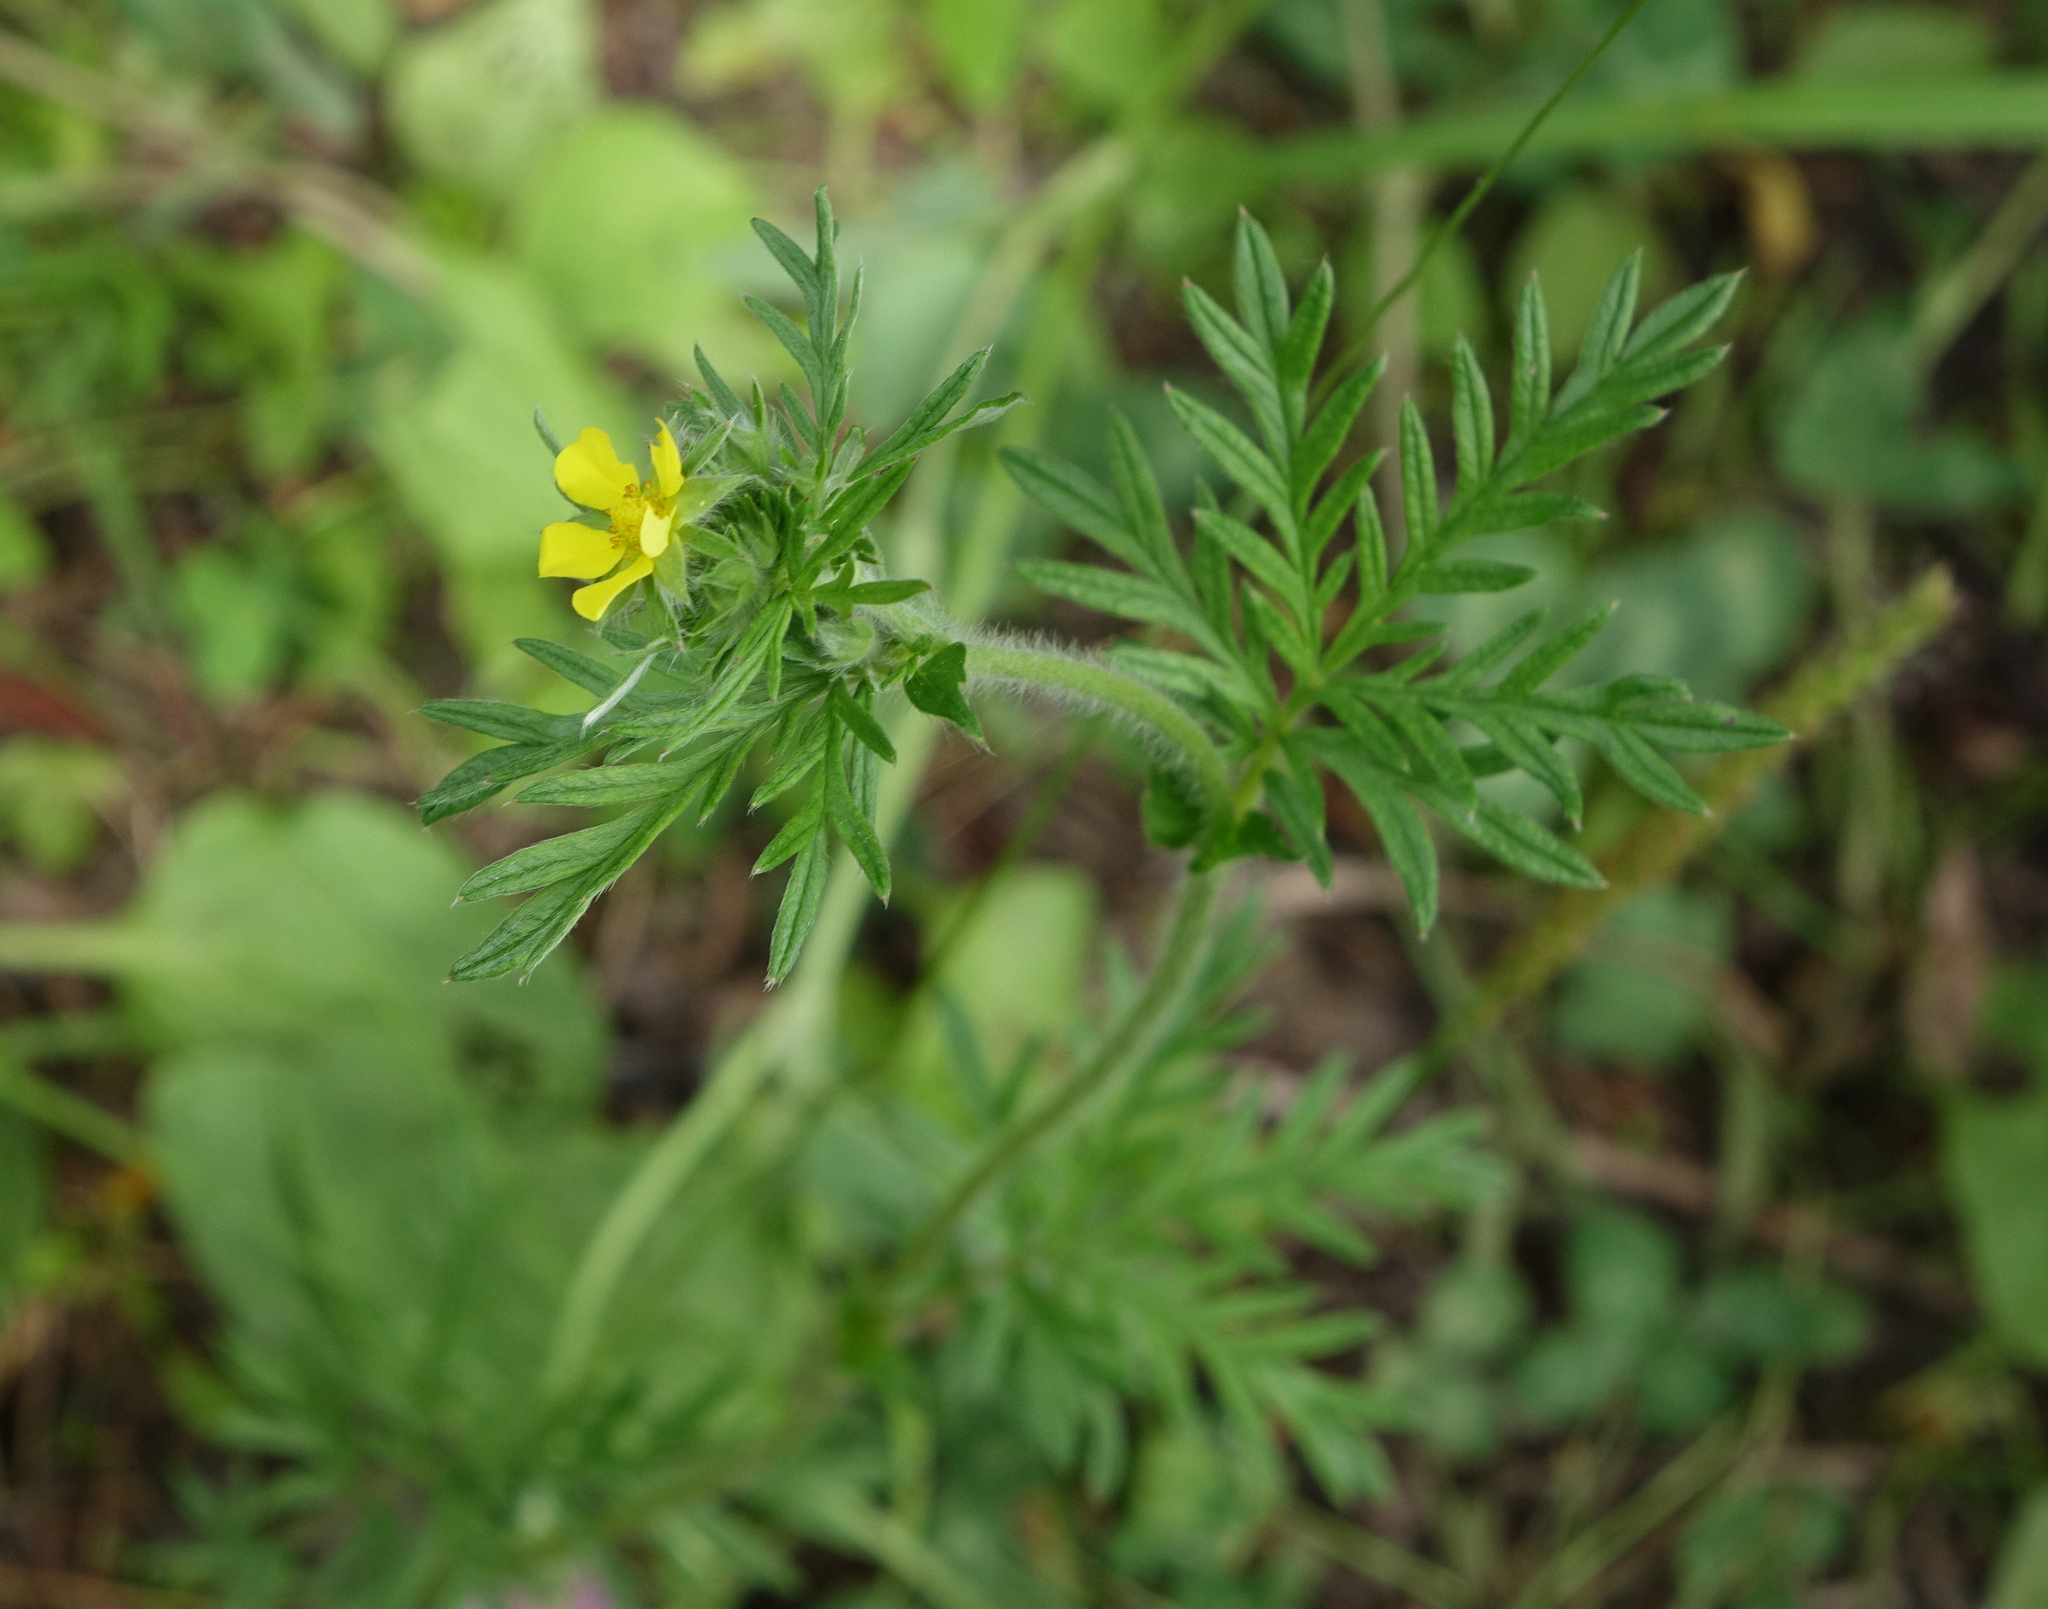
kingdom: Plantae
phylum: Tracheophyta
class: Magnoliopsida
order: Rosales
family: Rosaceae
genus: Potentilla
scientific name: Potentilla tergemina
